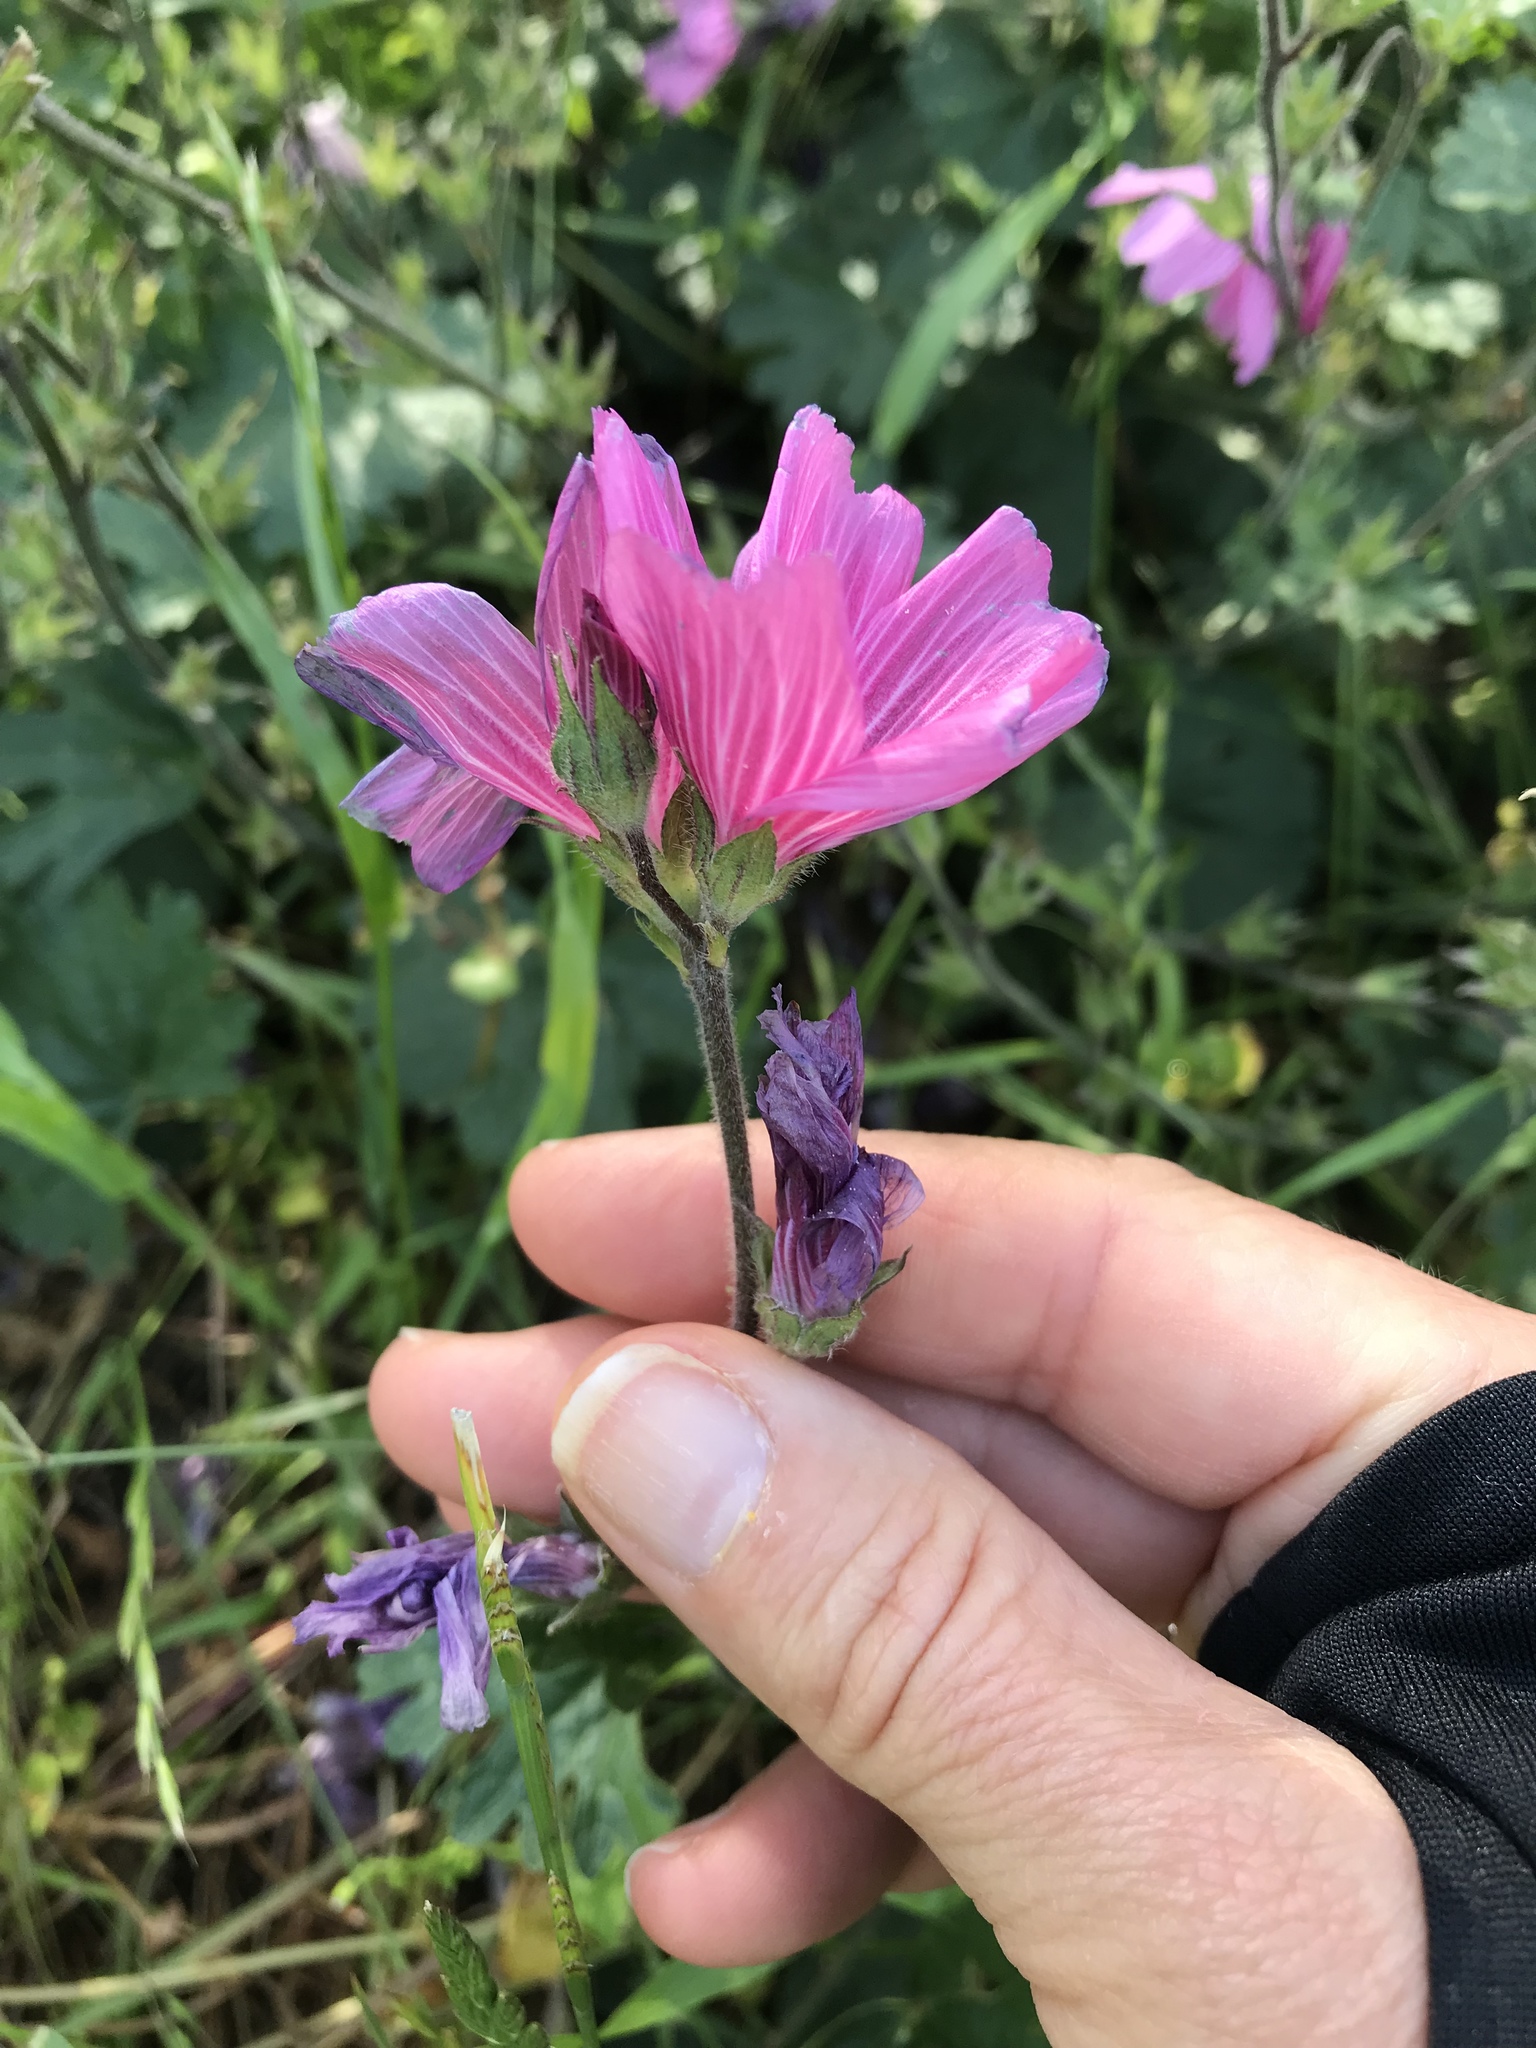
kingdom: Plantae
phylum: Tracheophyta
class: Magnoliopsida
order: Malvales
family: Malvaceae
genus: Sidalcea
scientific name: Sidalcea malviflora
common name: Greek mallow
